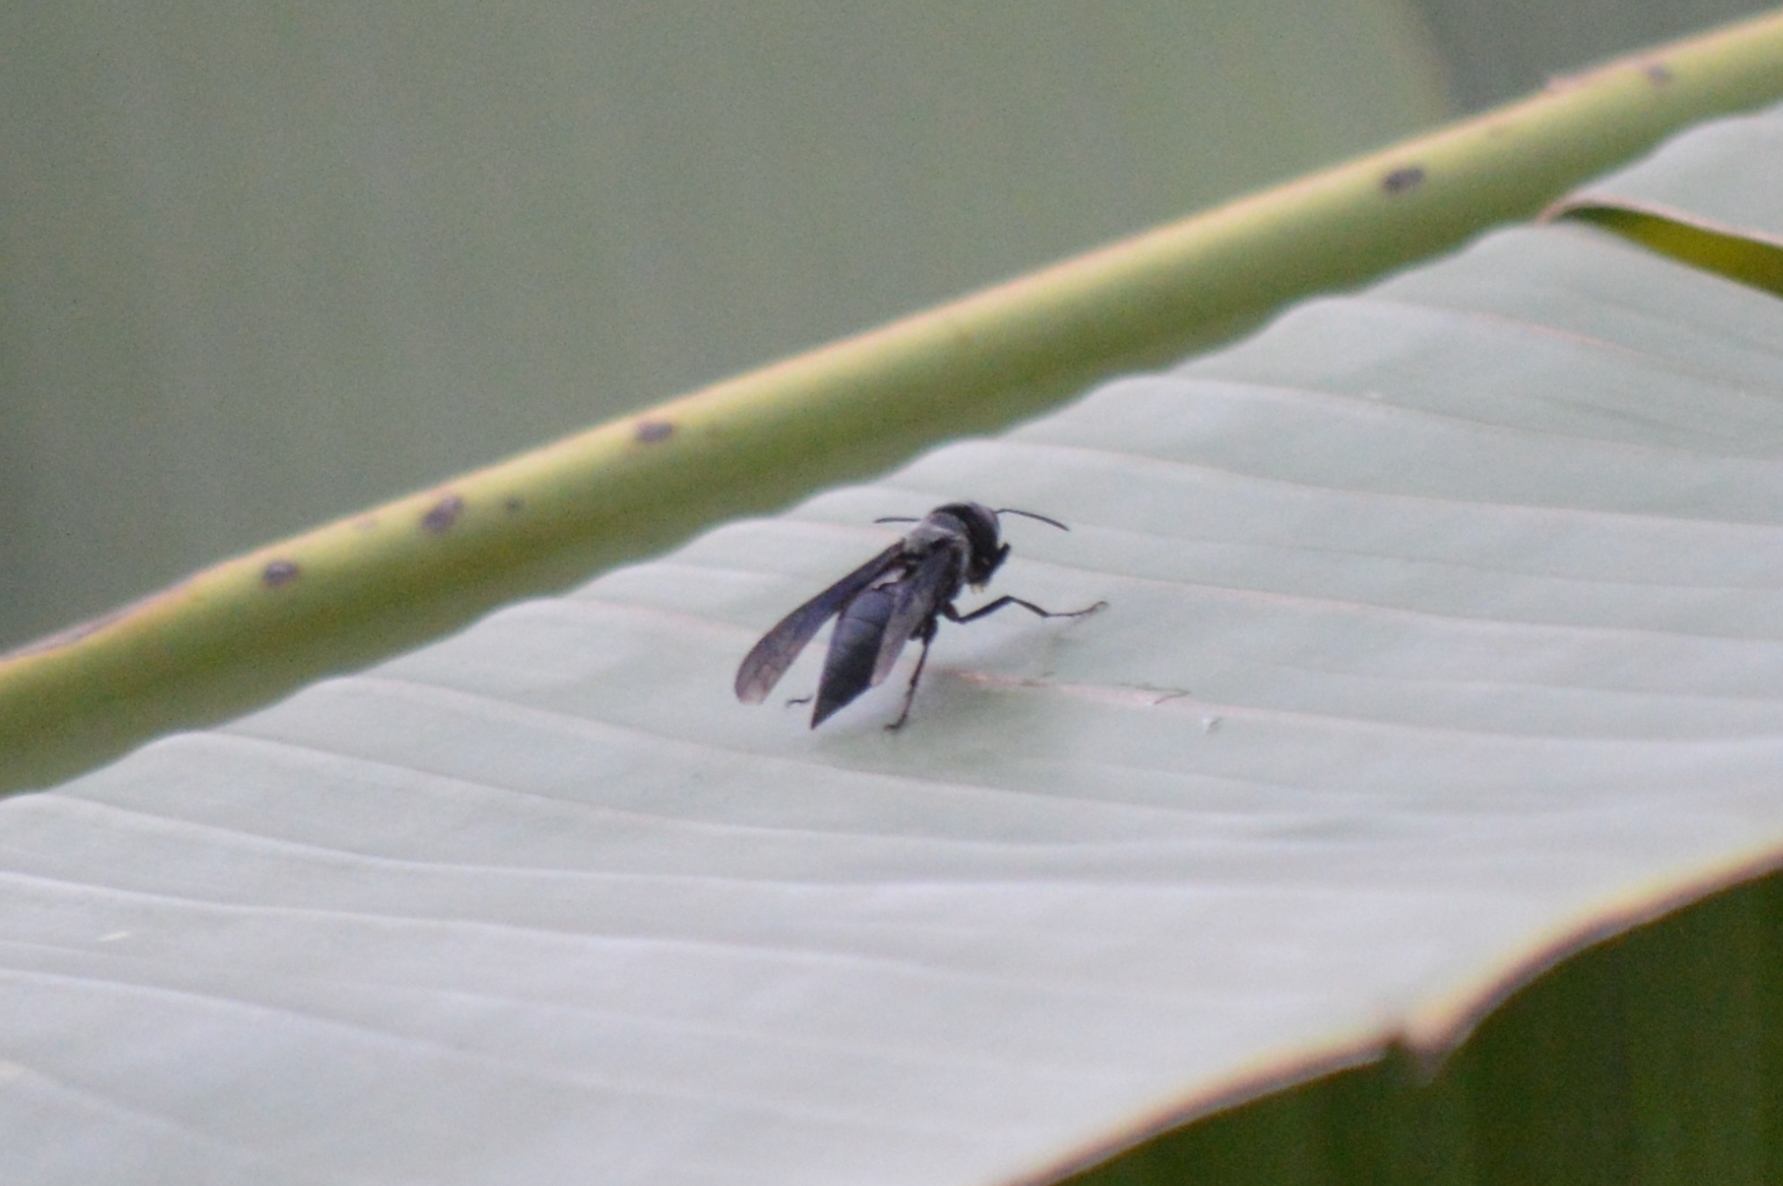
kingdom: Animalia
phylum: Arthropoda
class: Insecta
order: Hymenoptera
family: Vespidae
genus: Synoeca
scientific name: Synoeca surinama
